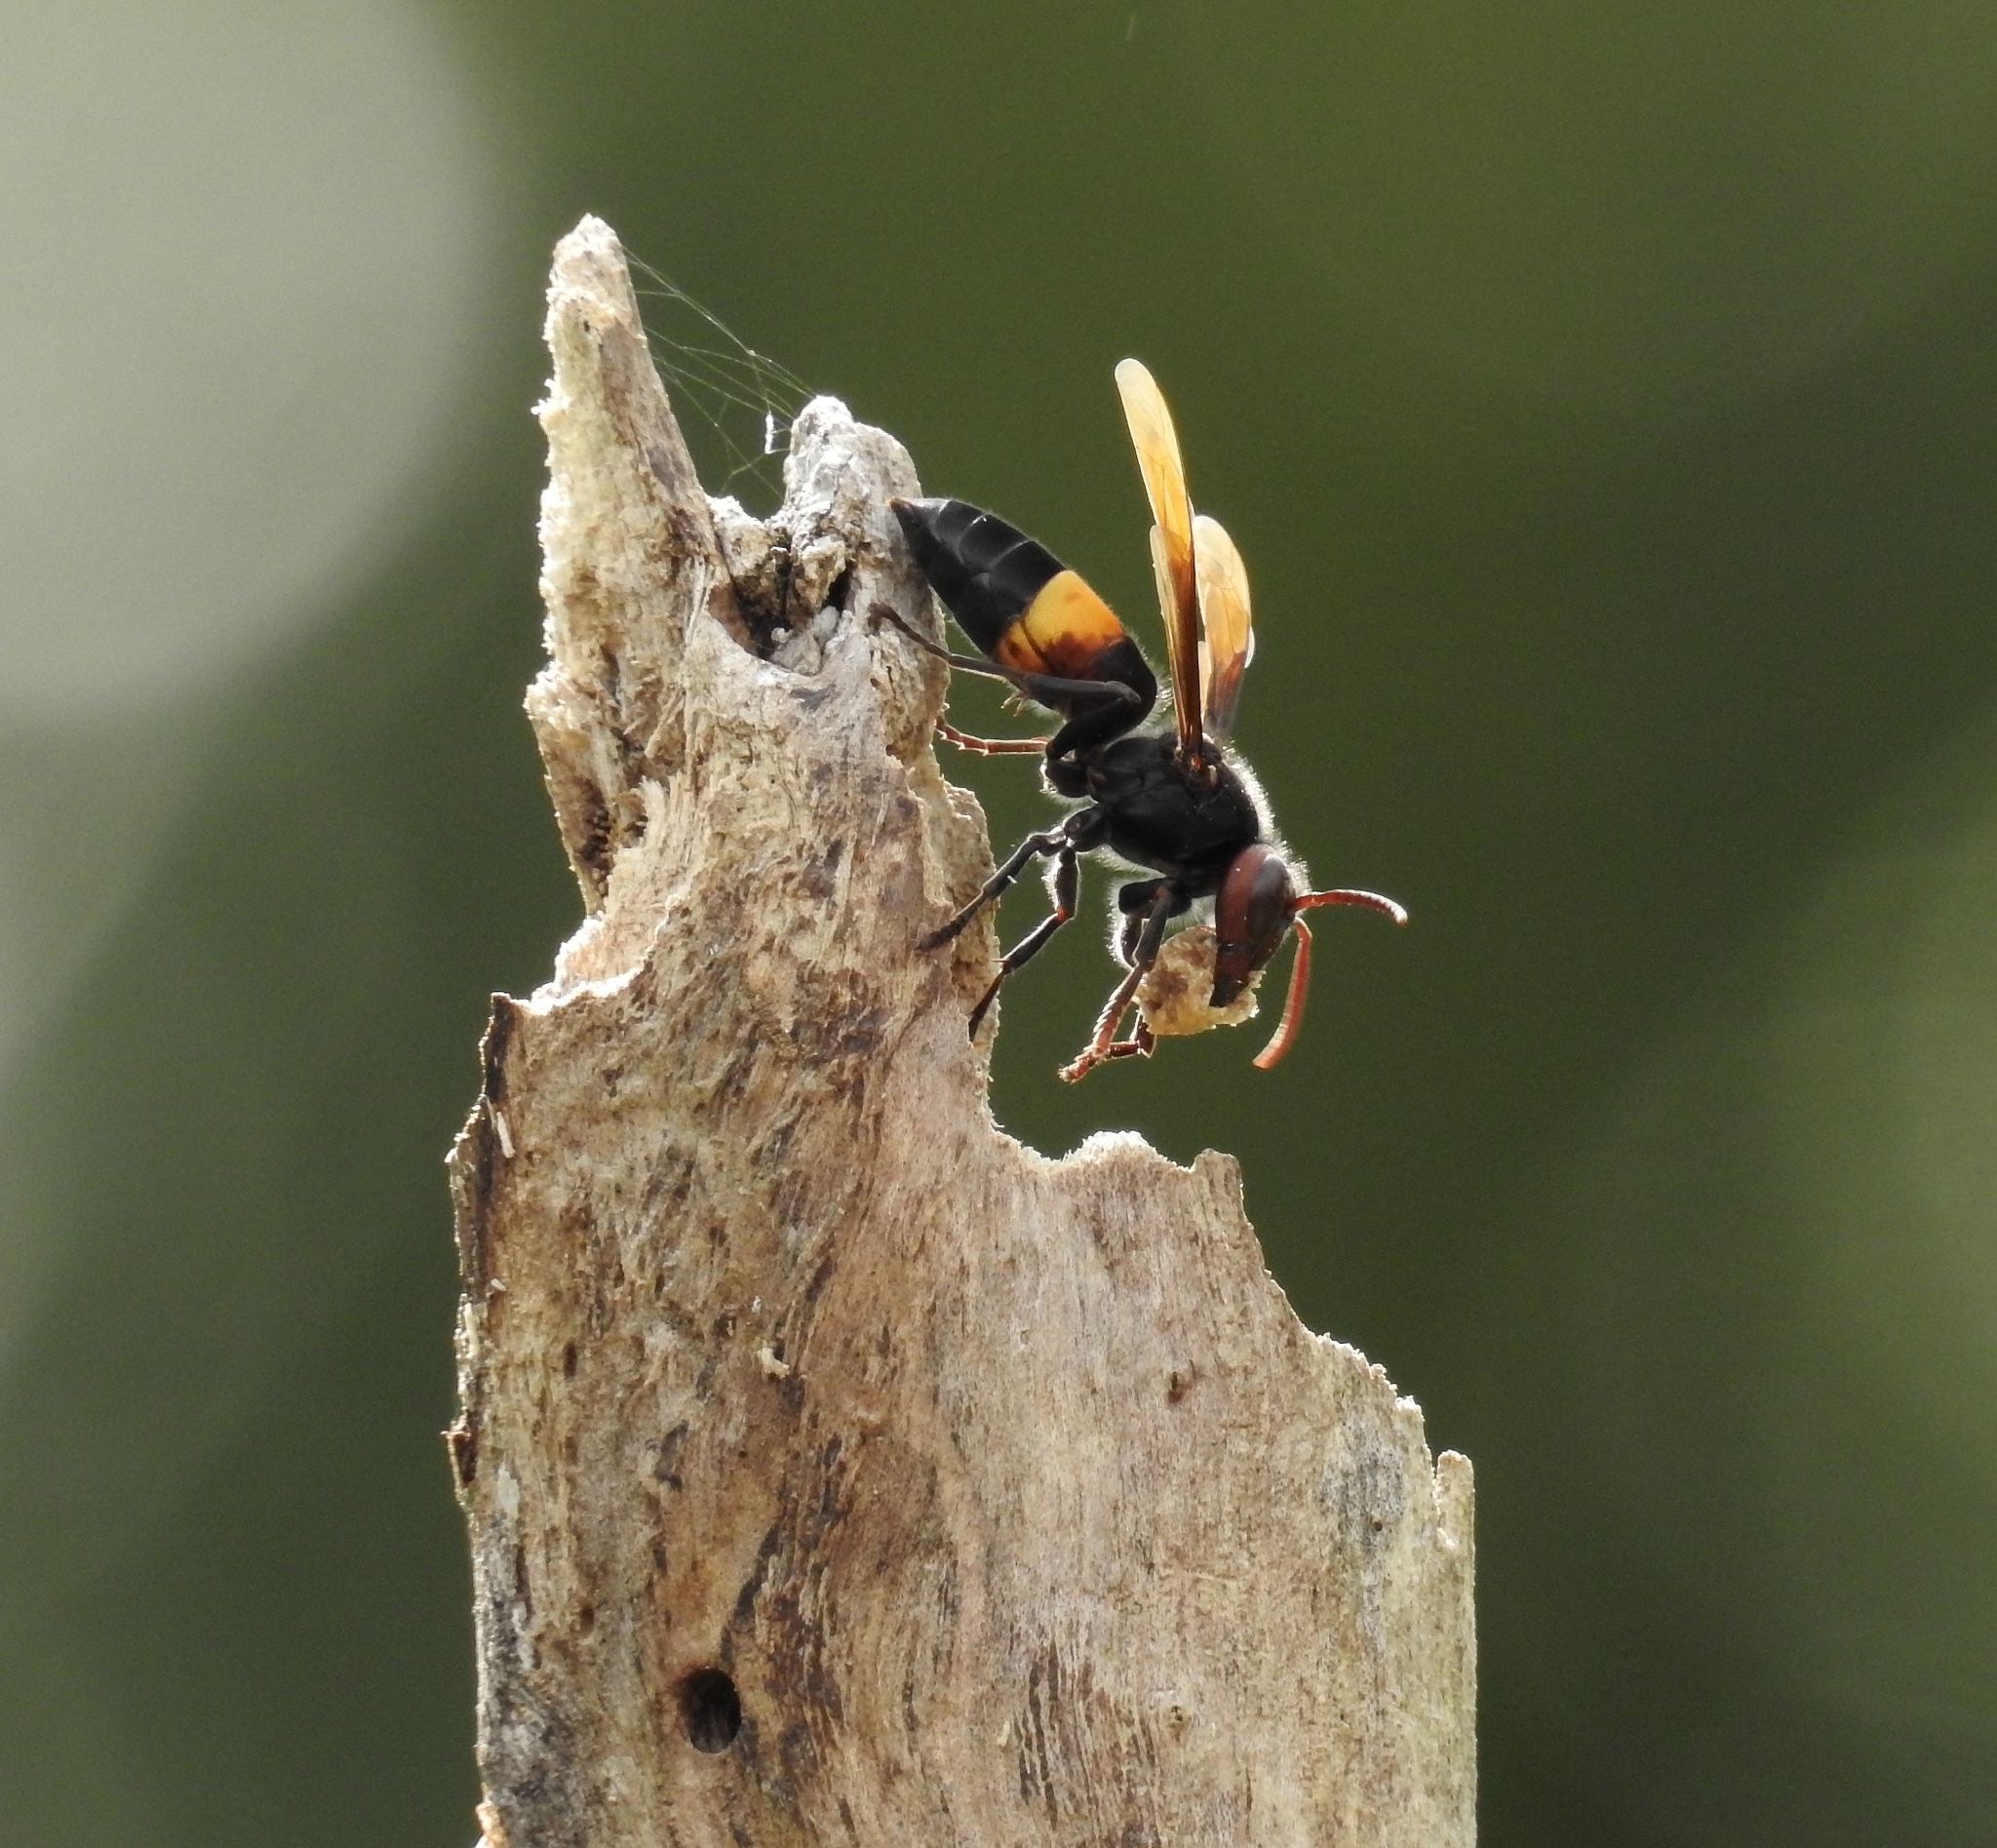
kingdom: Animalia
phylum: Arthropoda
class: Insecta
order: Hymenoptera
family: Vespidae
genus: Vespa
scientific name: Vespa tropica
